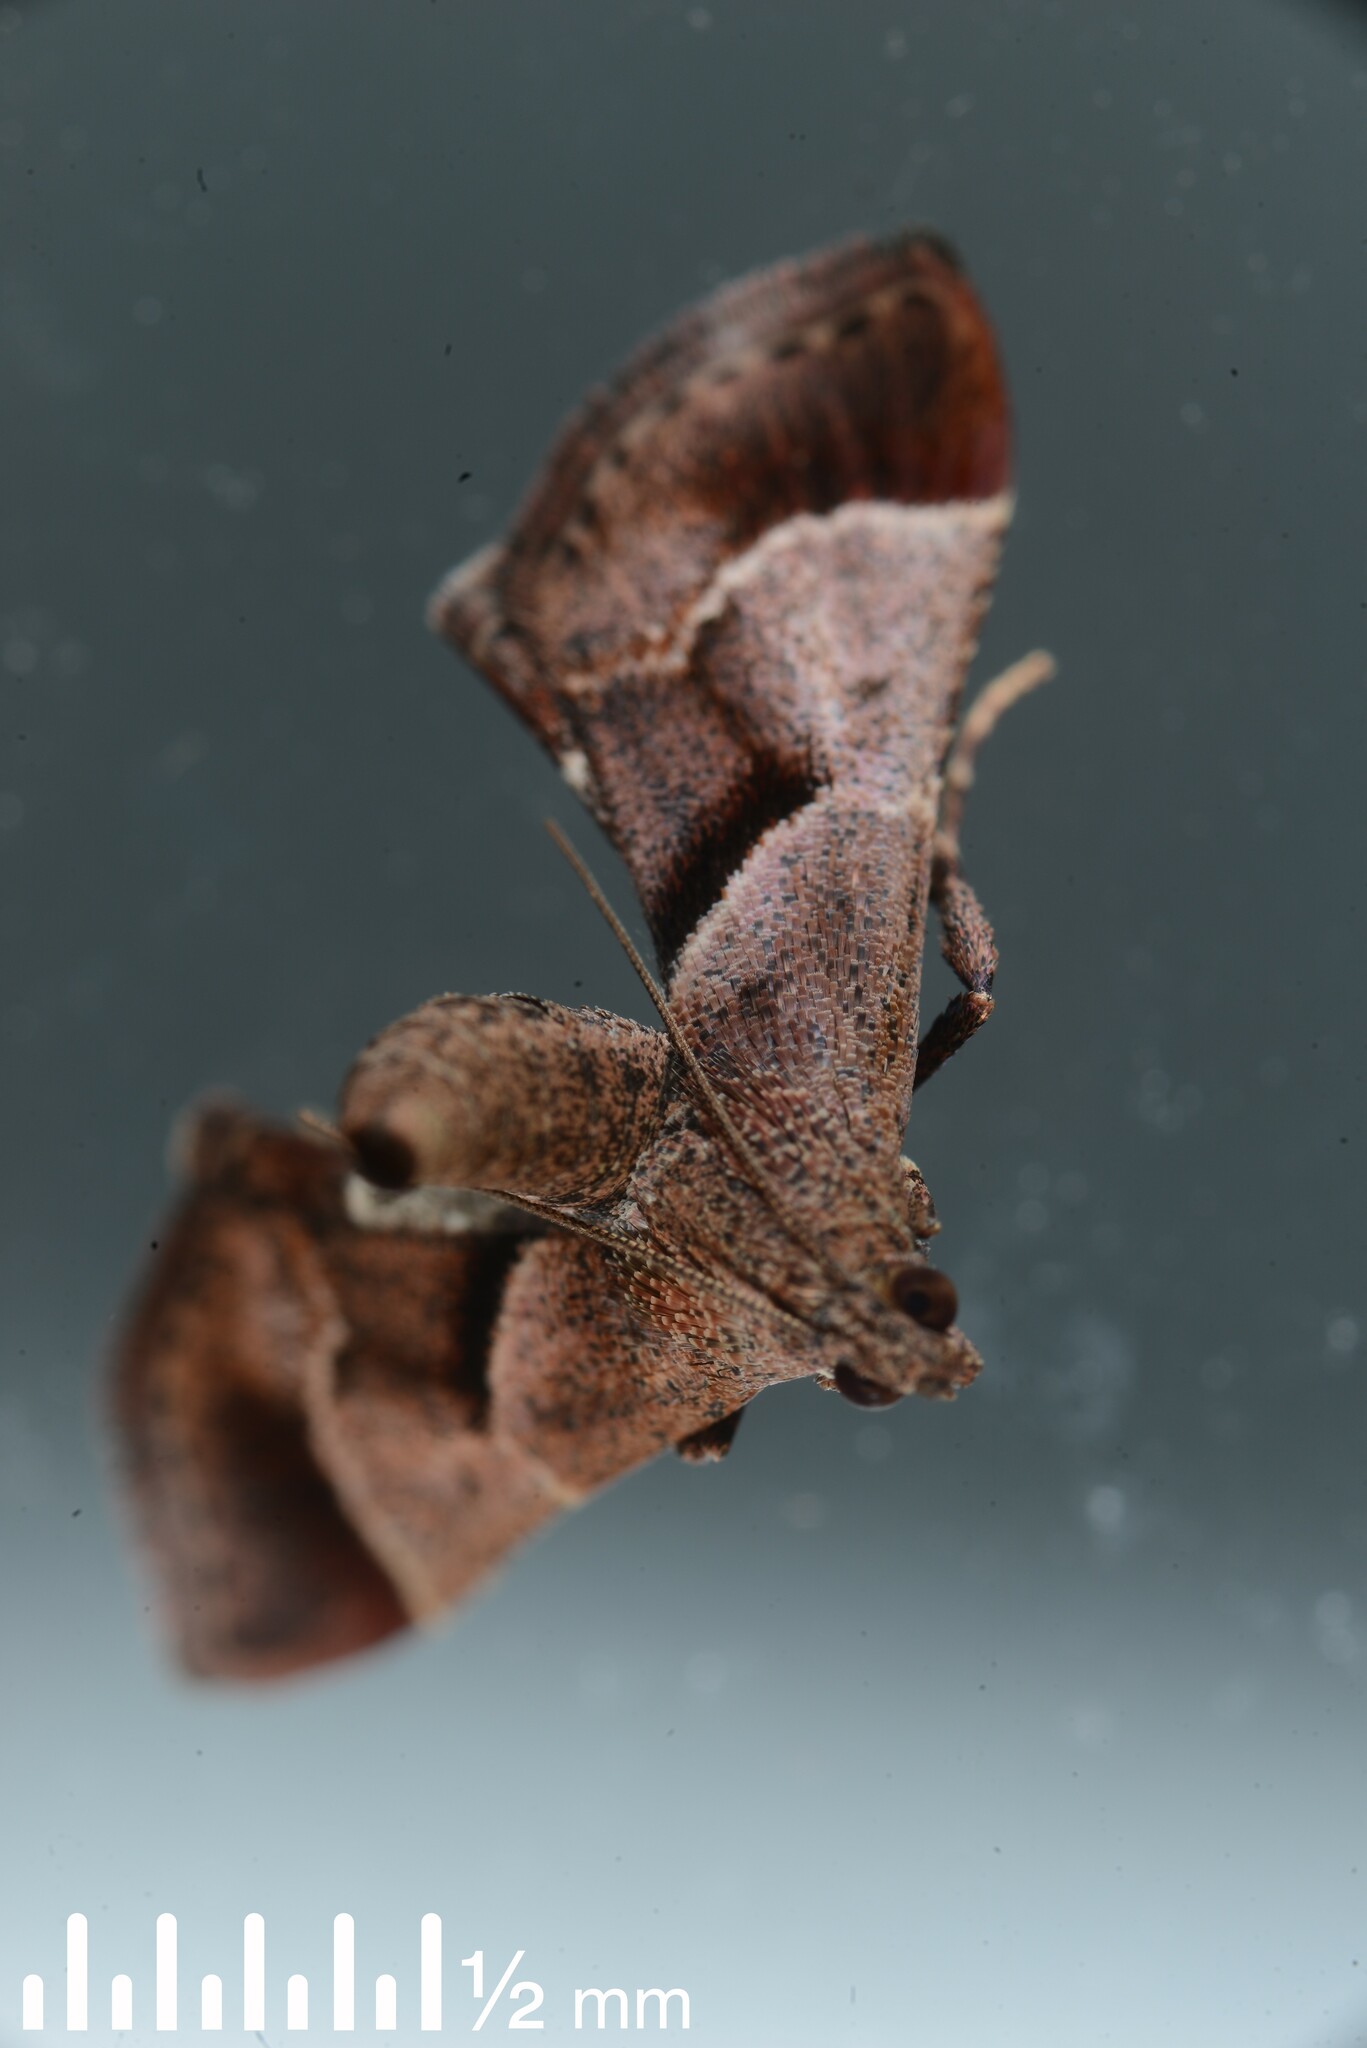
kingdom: Animalia
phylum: Arthropoda
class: Insecta
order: Lepidoptera
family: Pyralidae
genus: Gauna
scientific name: Gauna aegusalis
